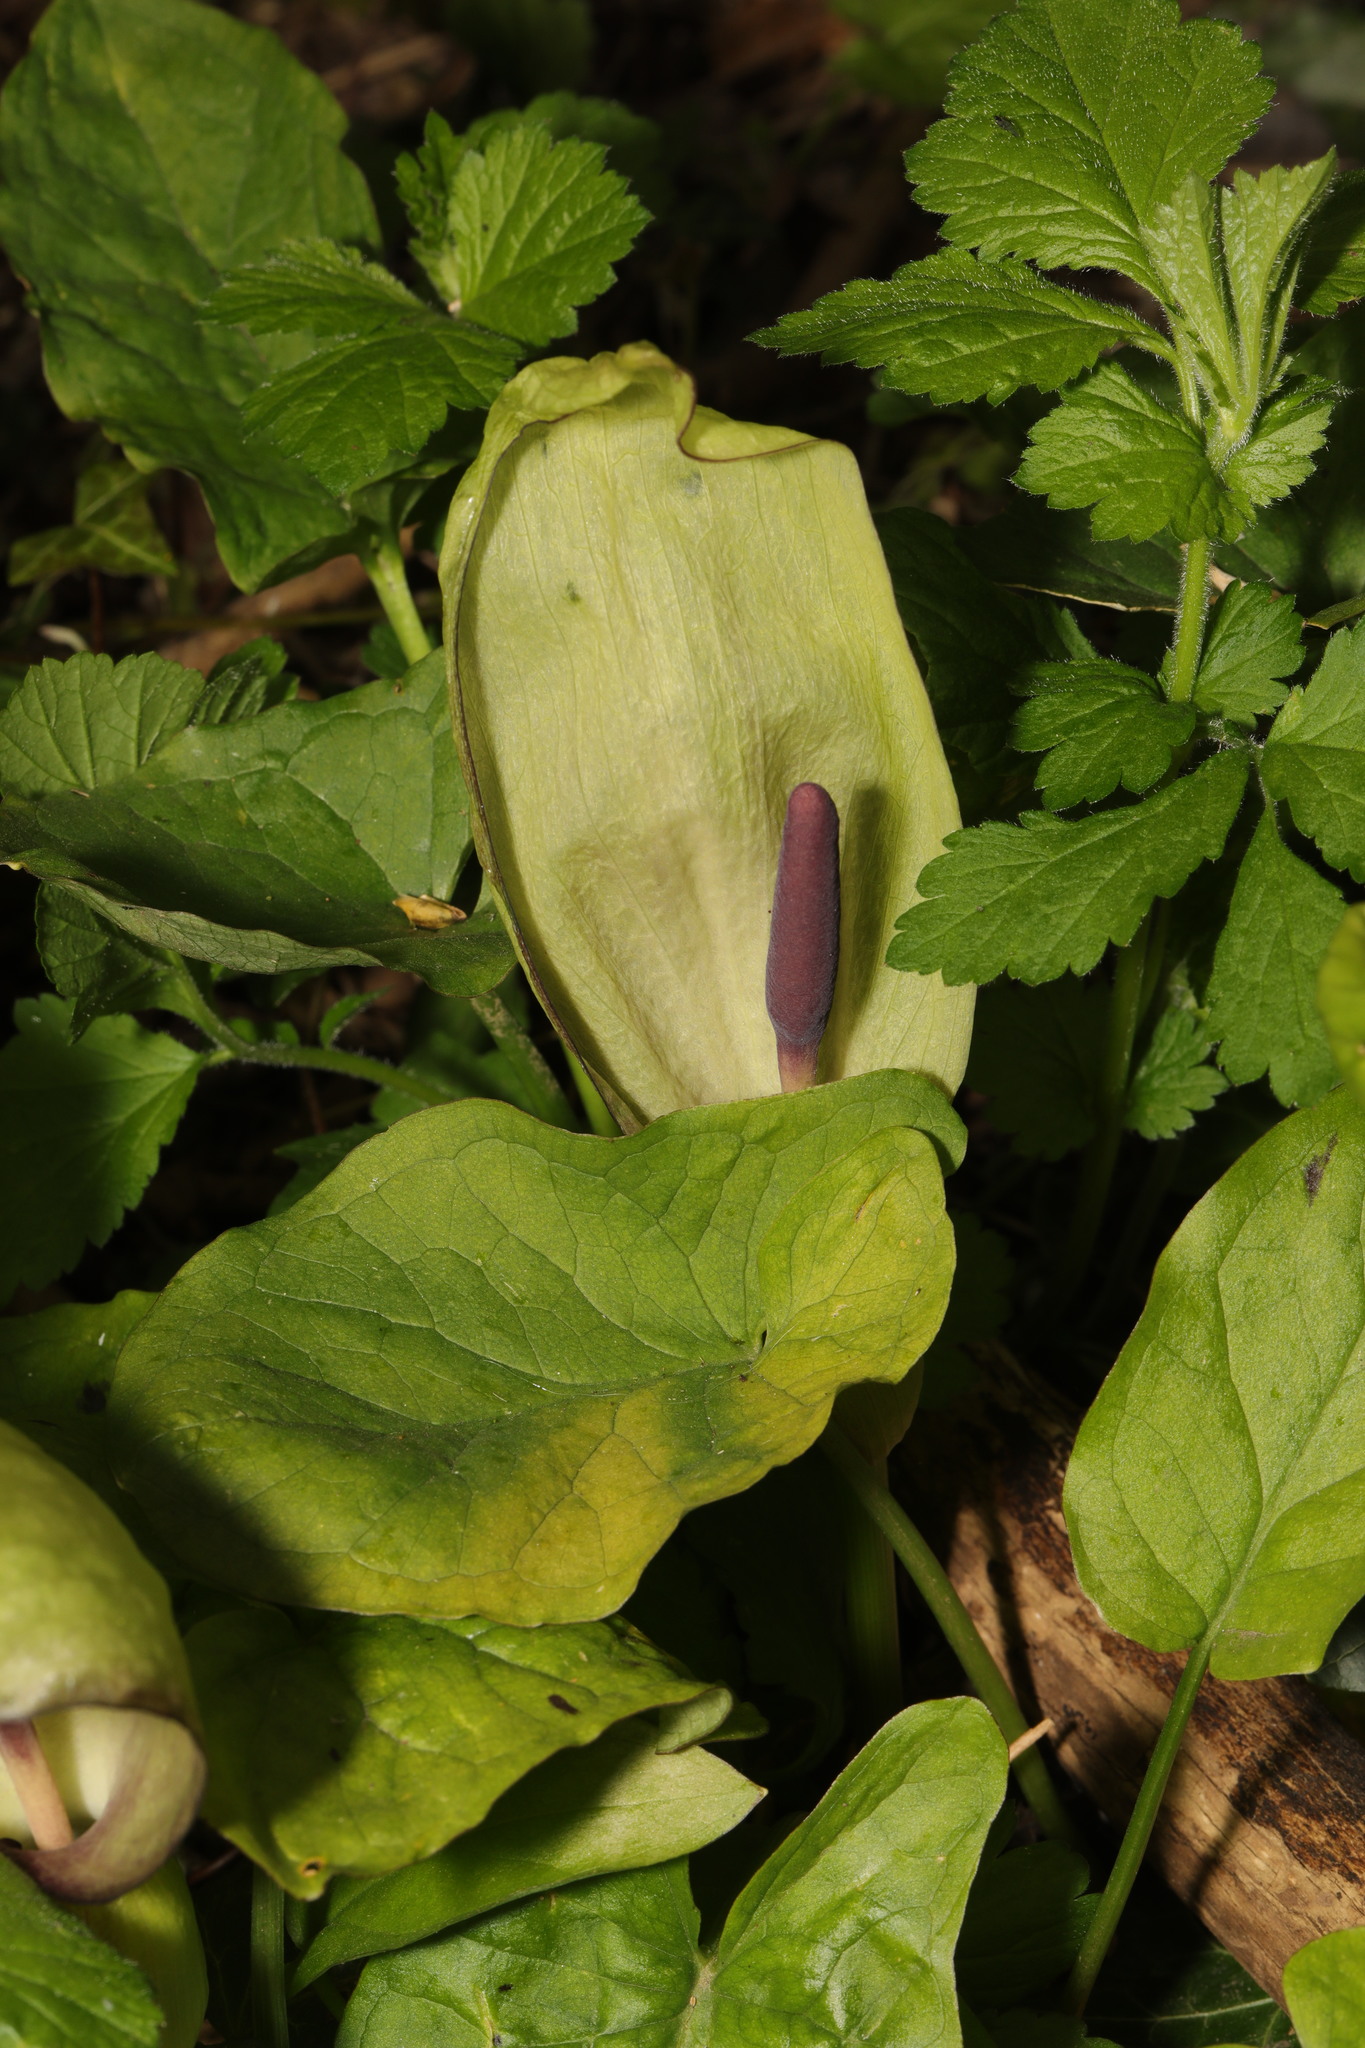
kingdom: Plantae
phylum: Tracheophyta
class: Liliopsida
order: Alismatales
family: Araceae
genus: Arum
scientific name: Arum maculatum
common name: Lords-and-ladies
